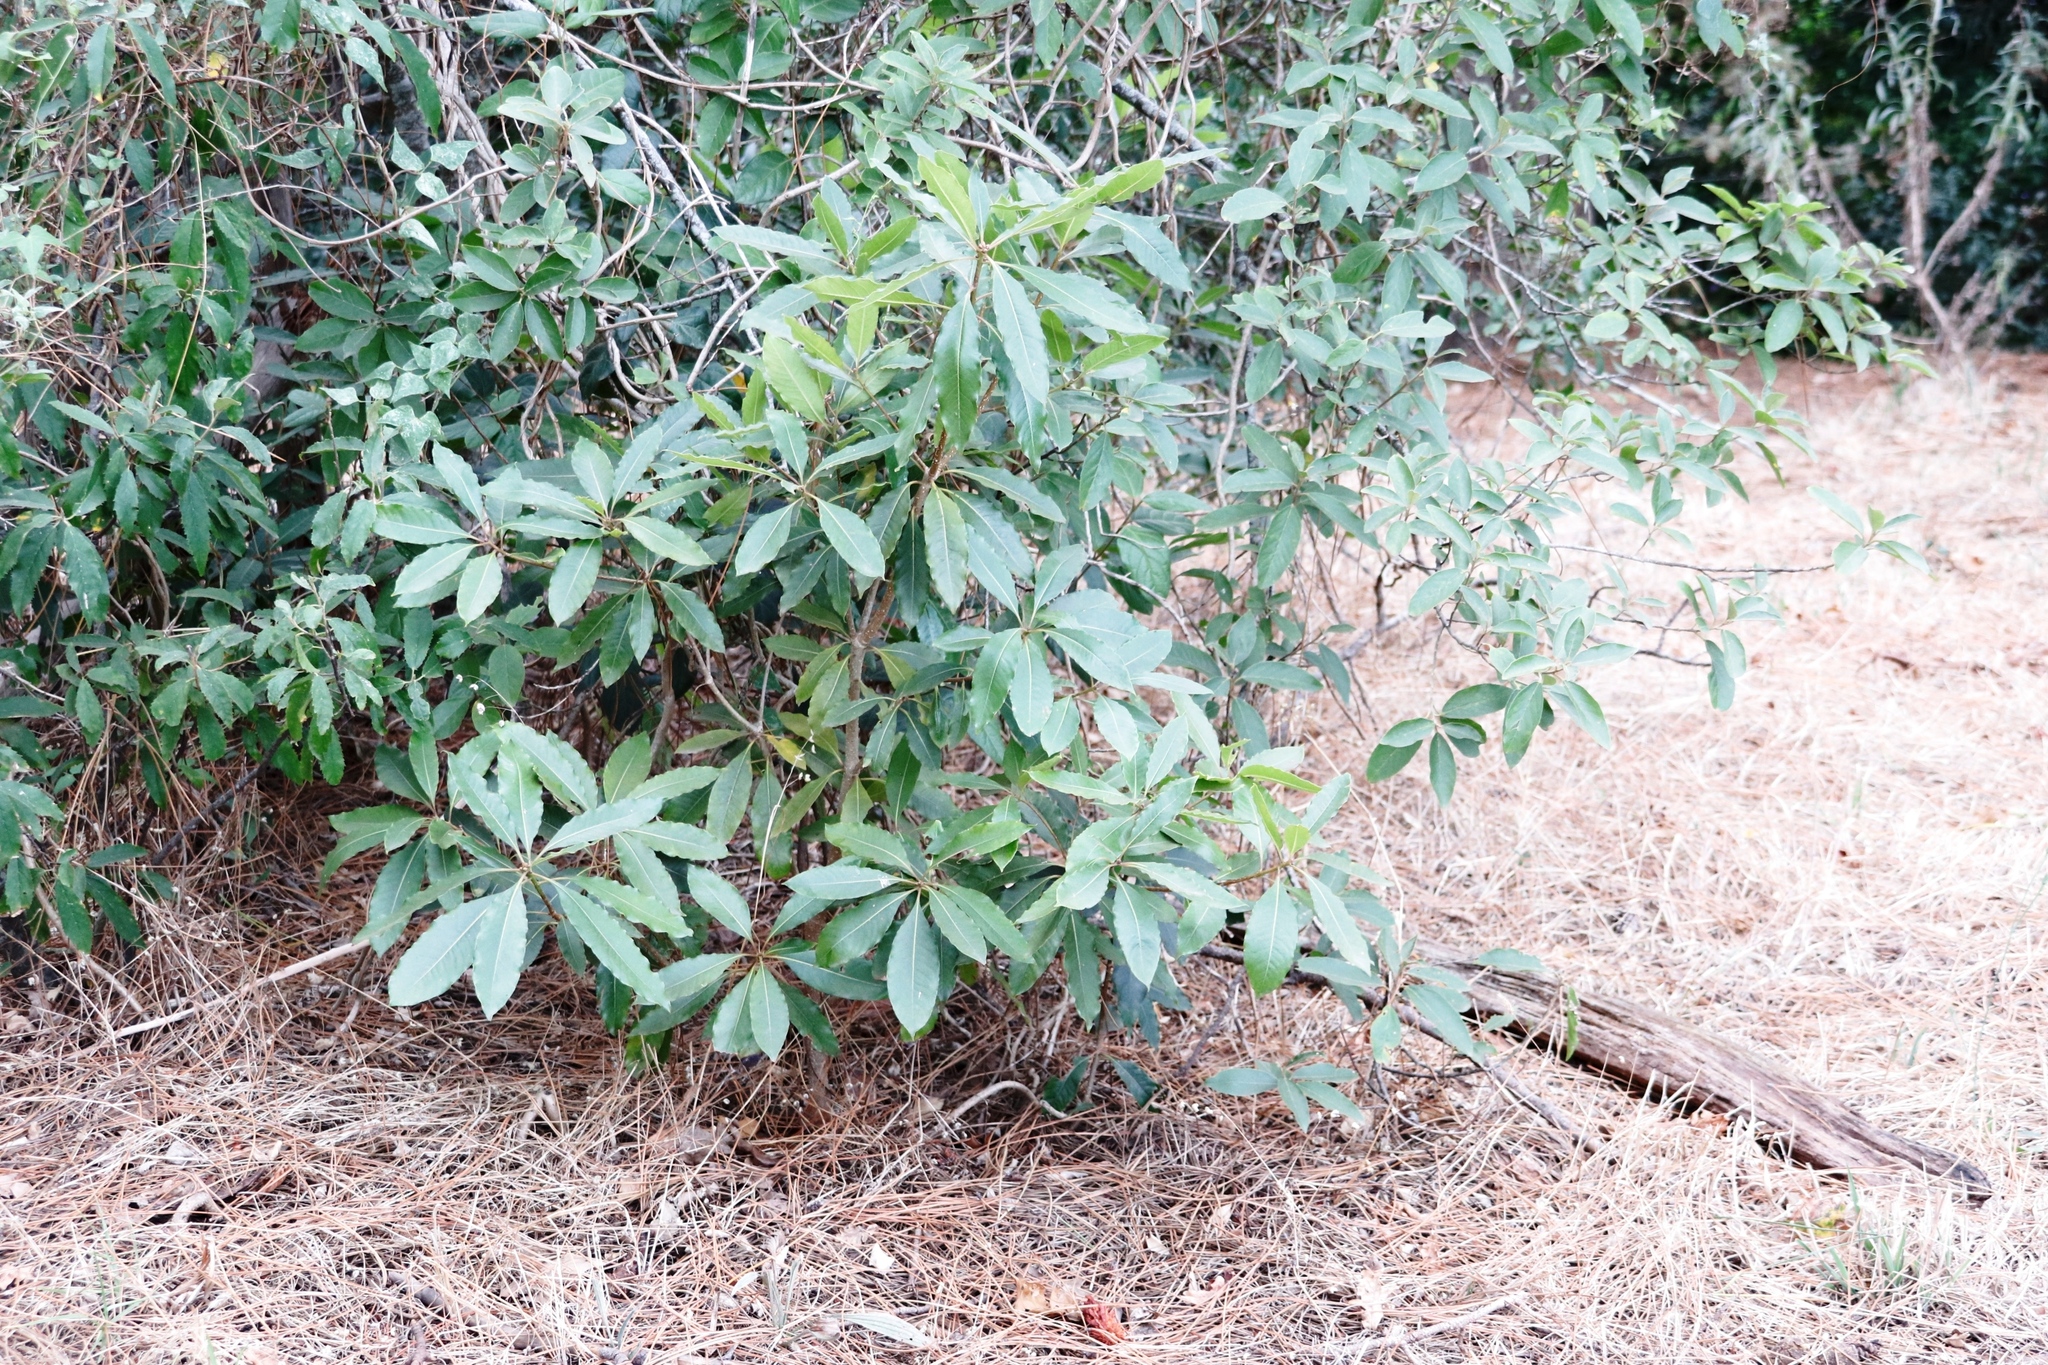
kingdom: Plantae
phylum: Tracheophyta
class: Magnoliopsida
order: Apiales
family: Pittosporaceae
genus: Pittosporum
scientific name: Pittosporum undulatum
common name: Australian cheesewood
